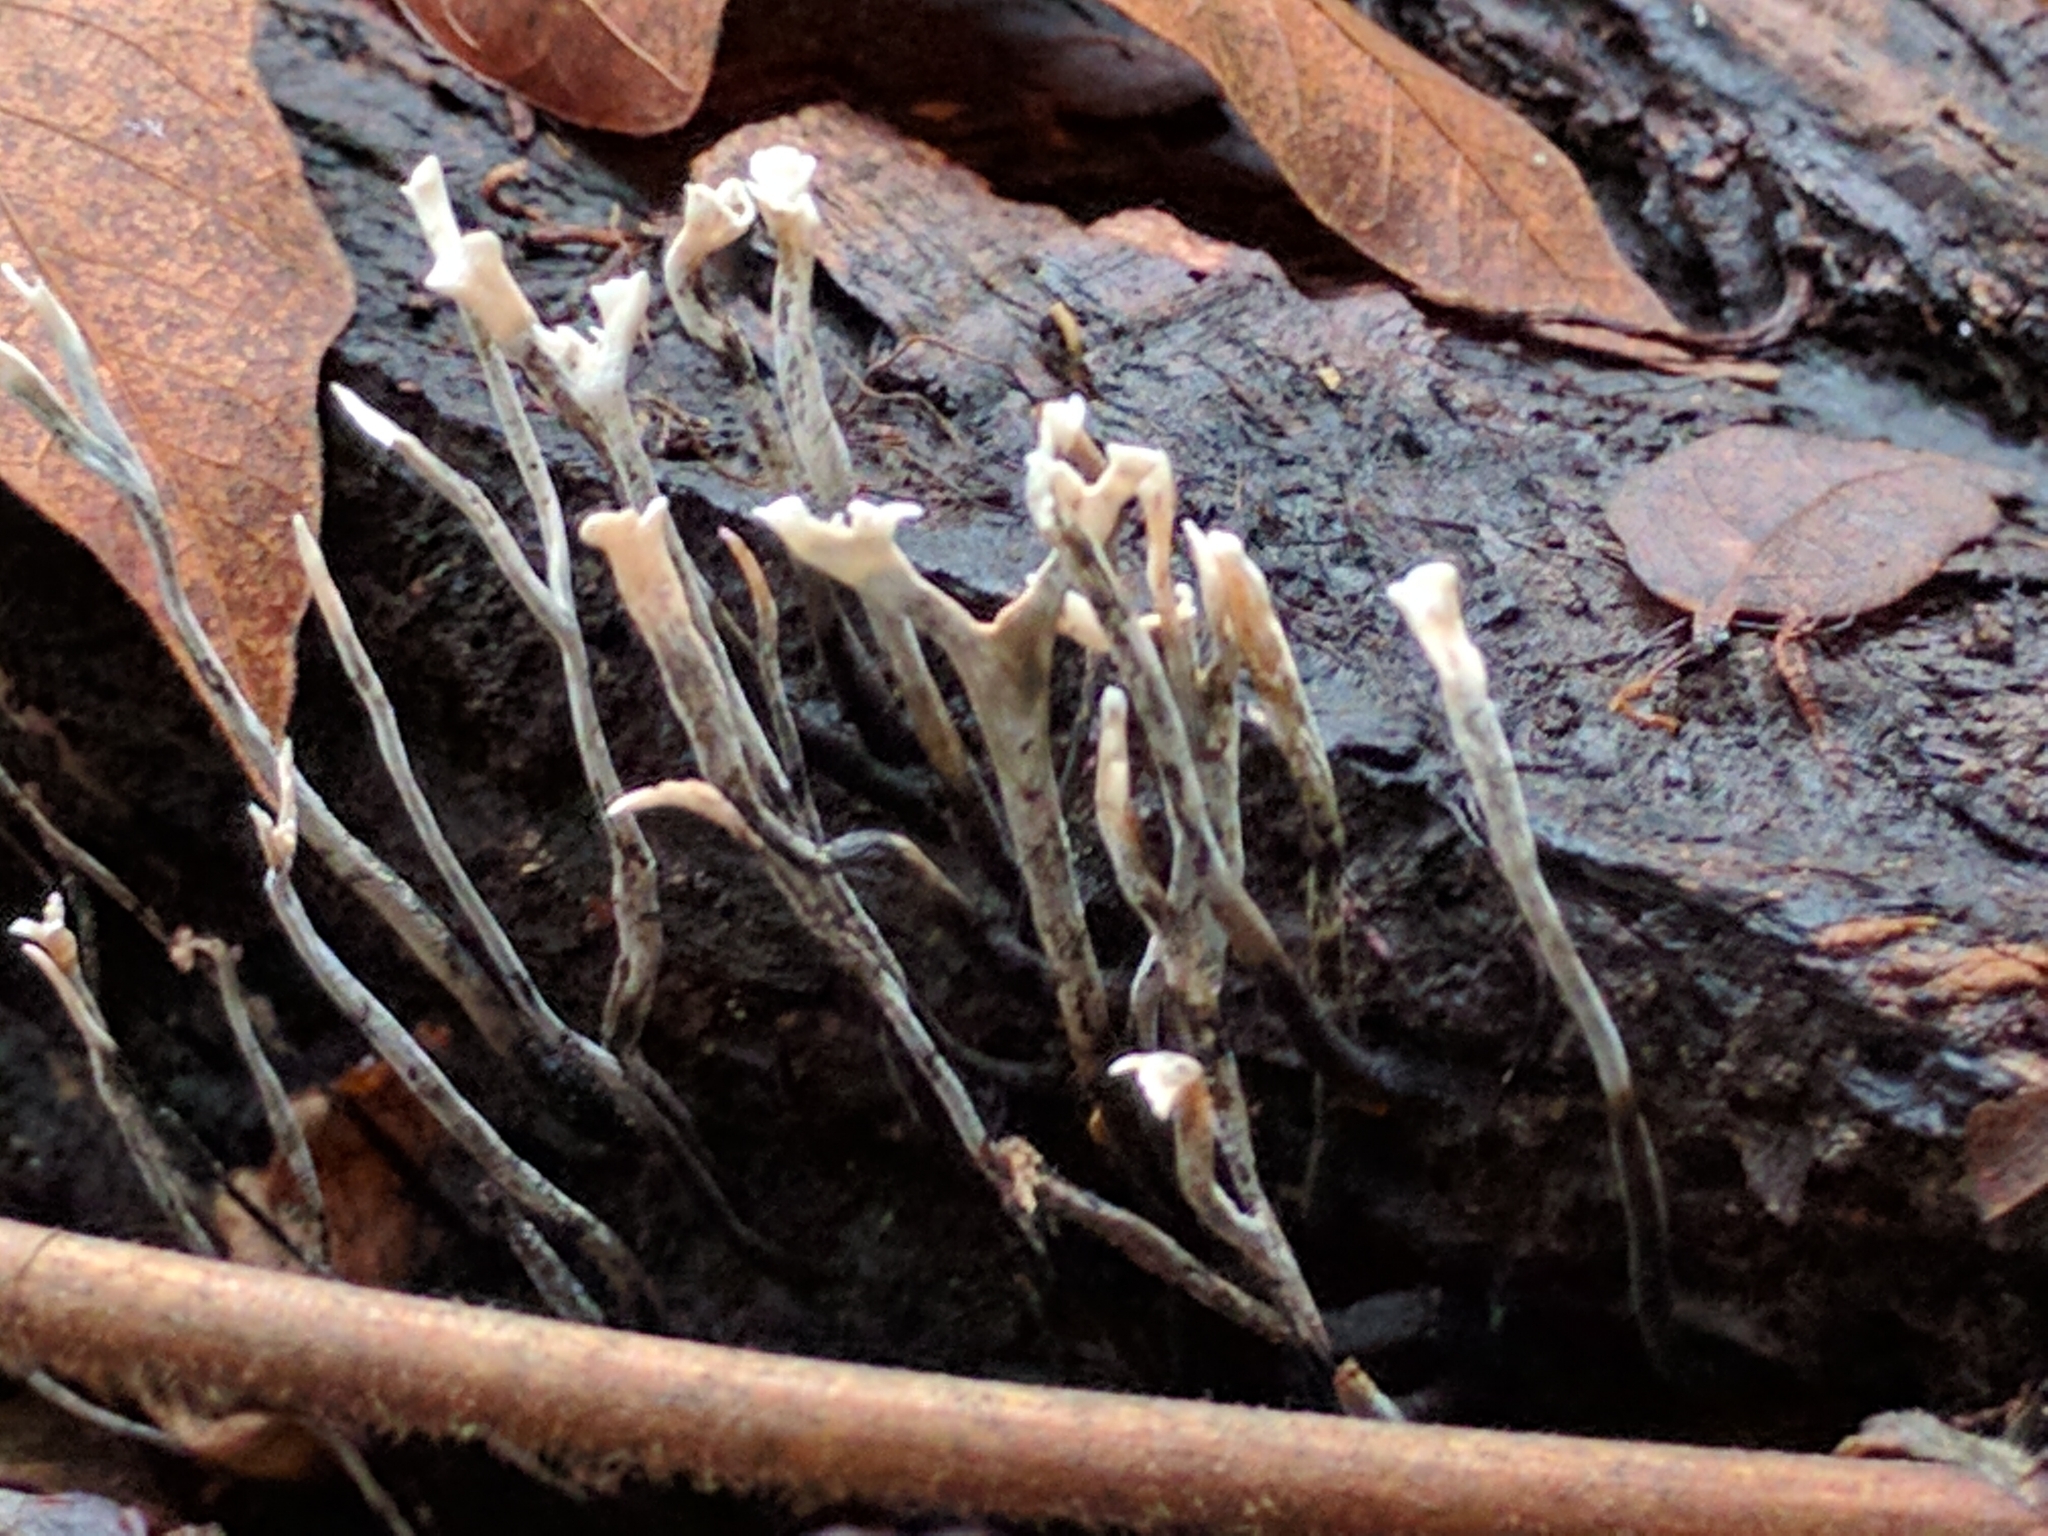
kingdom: Fungi
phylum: Ascomycota
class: Sordariomycetes
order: Xylariales
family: Xylariaceae
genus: Xylaria
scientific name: Xylaria hypoxylon
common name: Candle-snuff fungus
